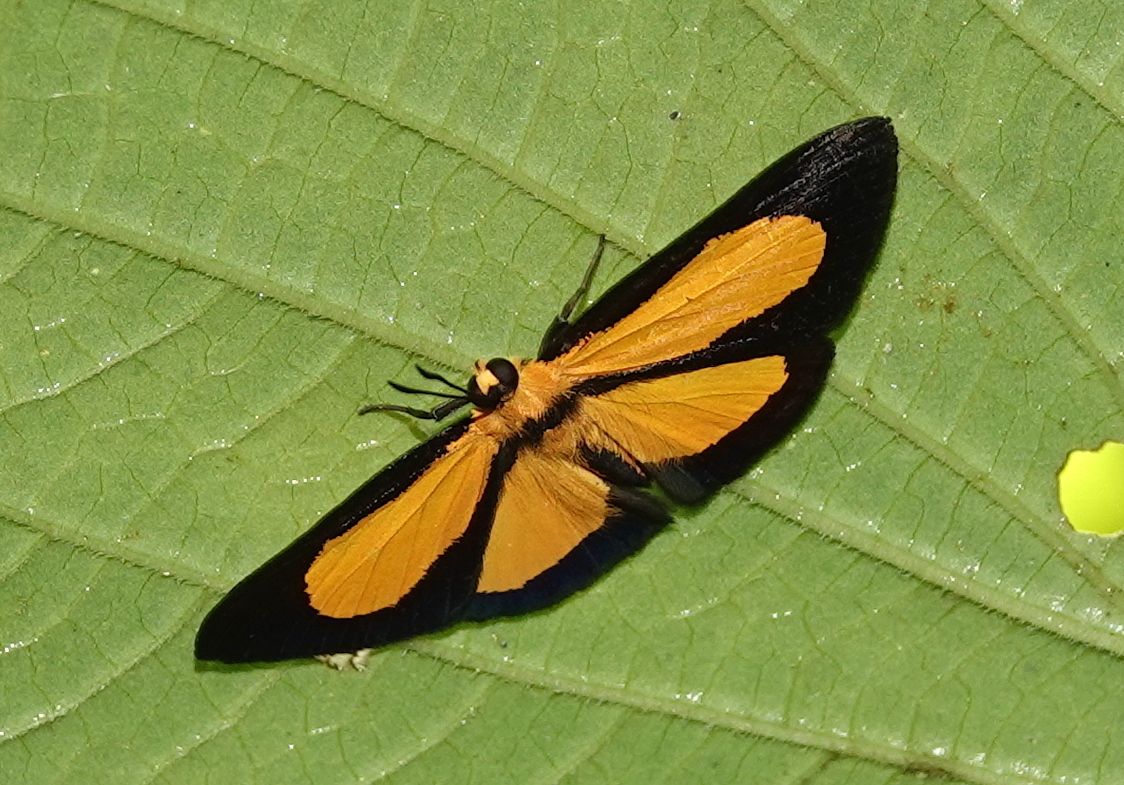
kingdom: Animalia
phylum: Arthropoda
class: Insecta
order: Lepidoptera
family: Lycaenidae
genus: Mesenopsis
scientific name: Mesenopsis briseis
